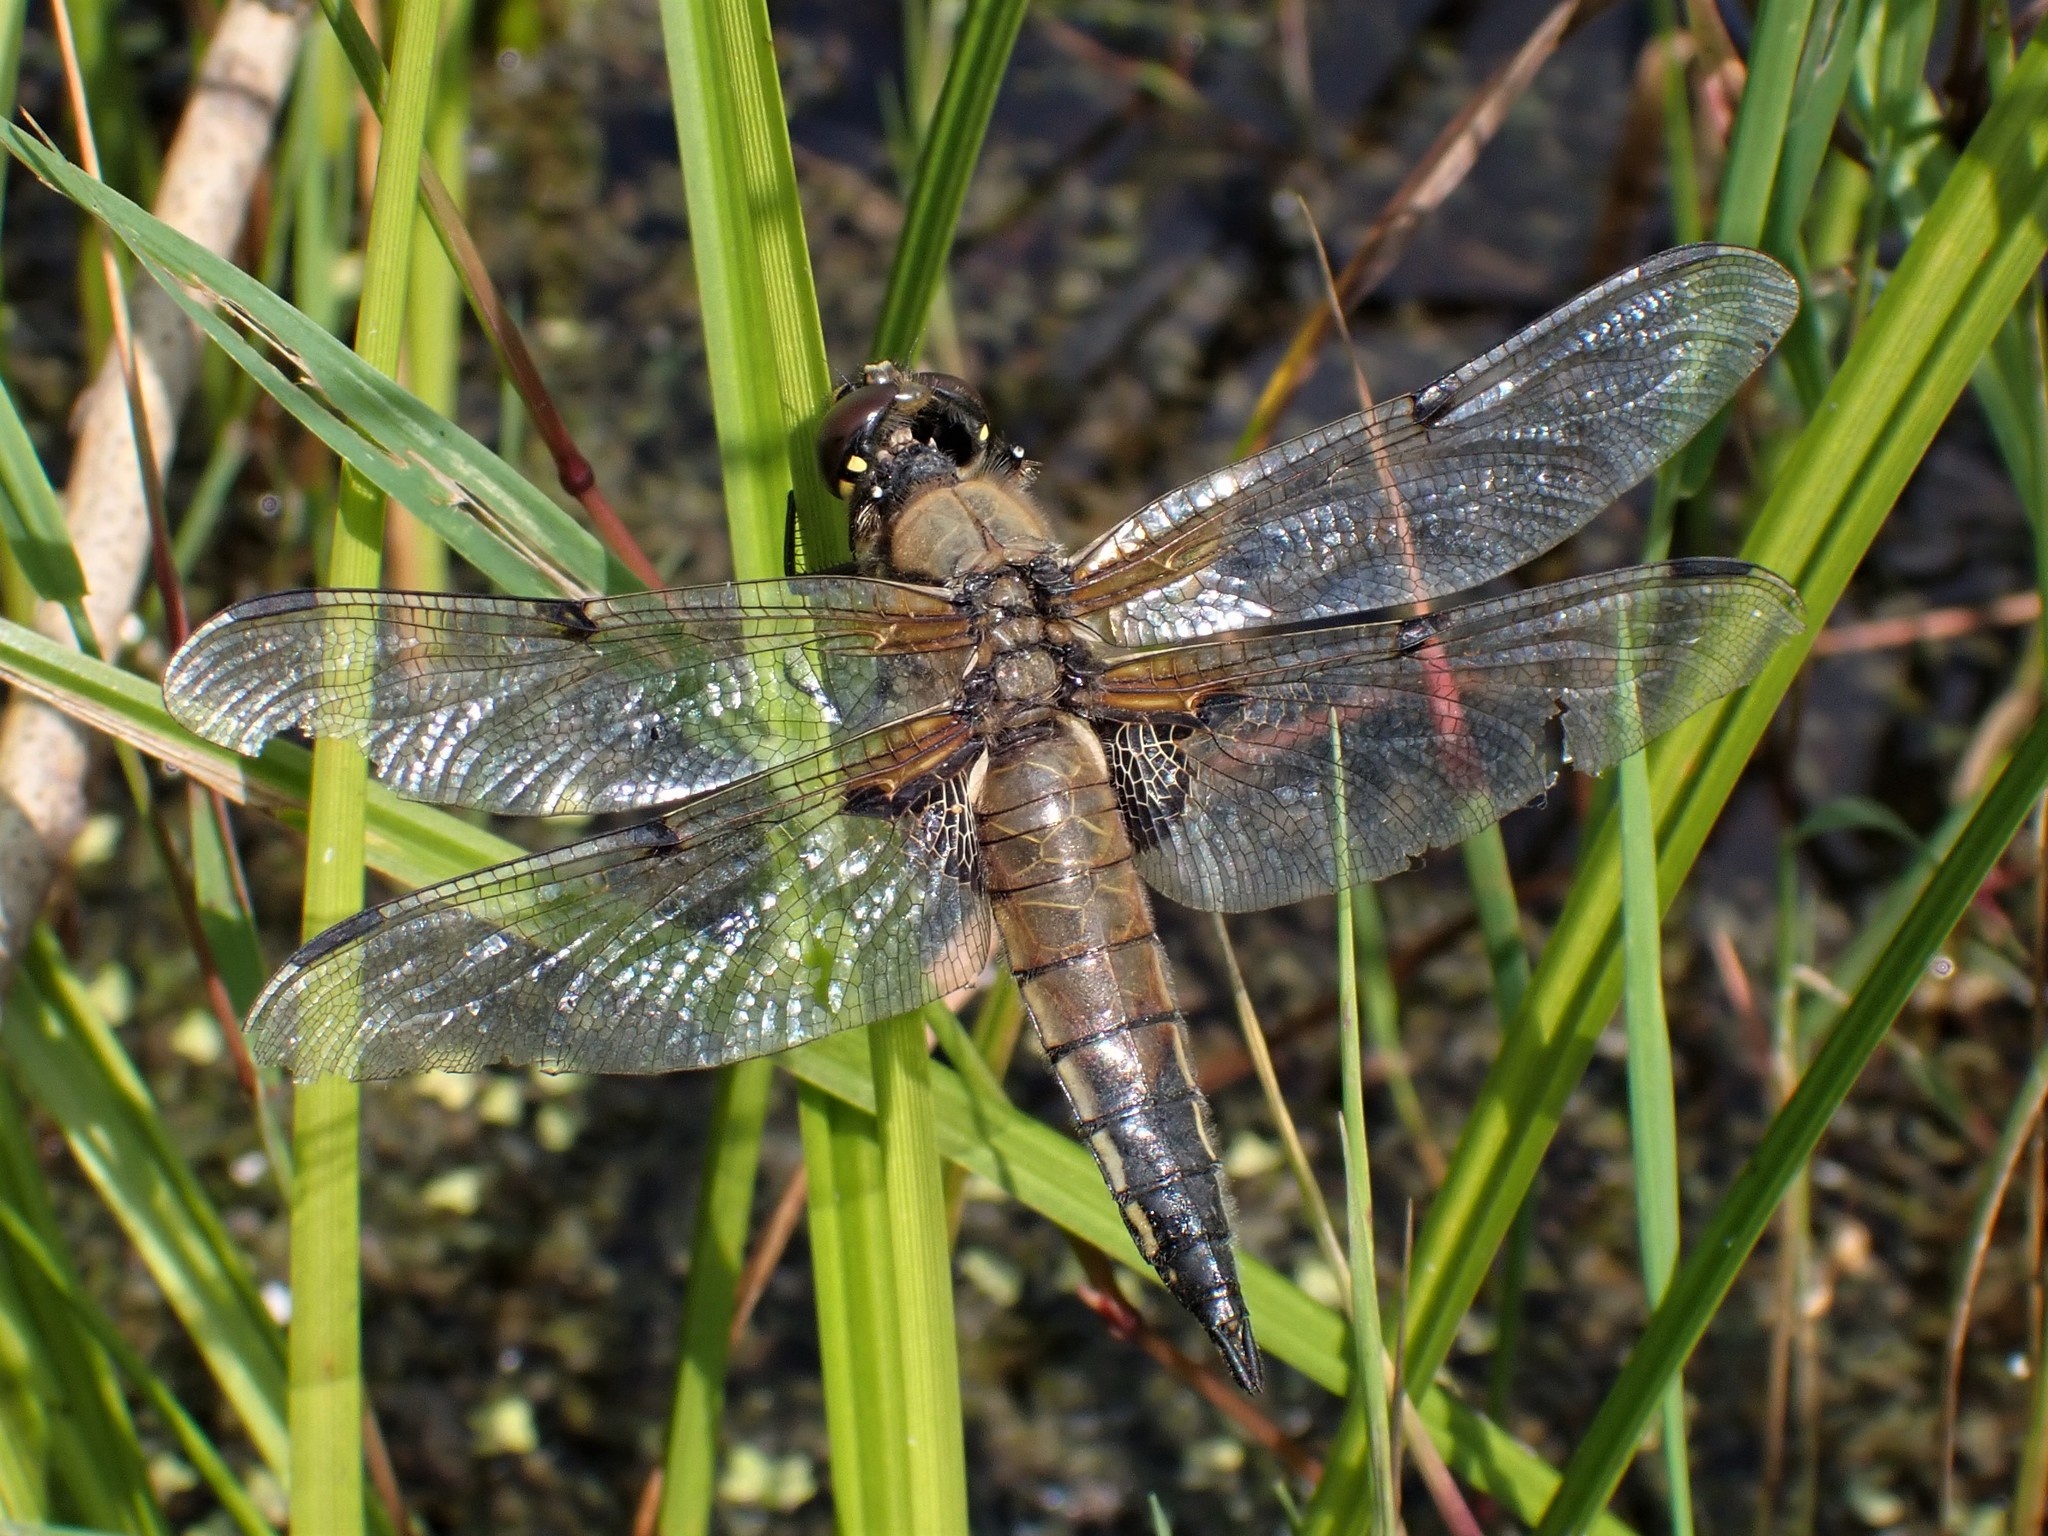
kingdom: Animalia
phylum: Arthropoda
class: Insecta
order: Odonata
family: Libellulidae
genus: Libellula
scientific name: Libellula quadrimaculata
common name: Four-spotted chaser
